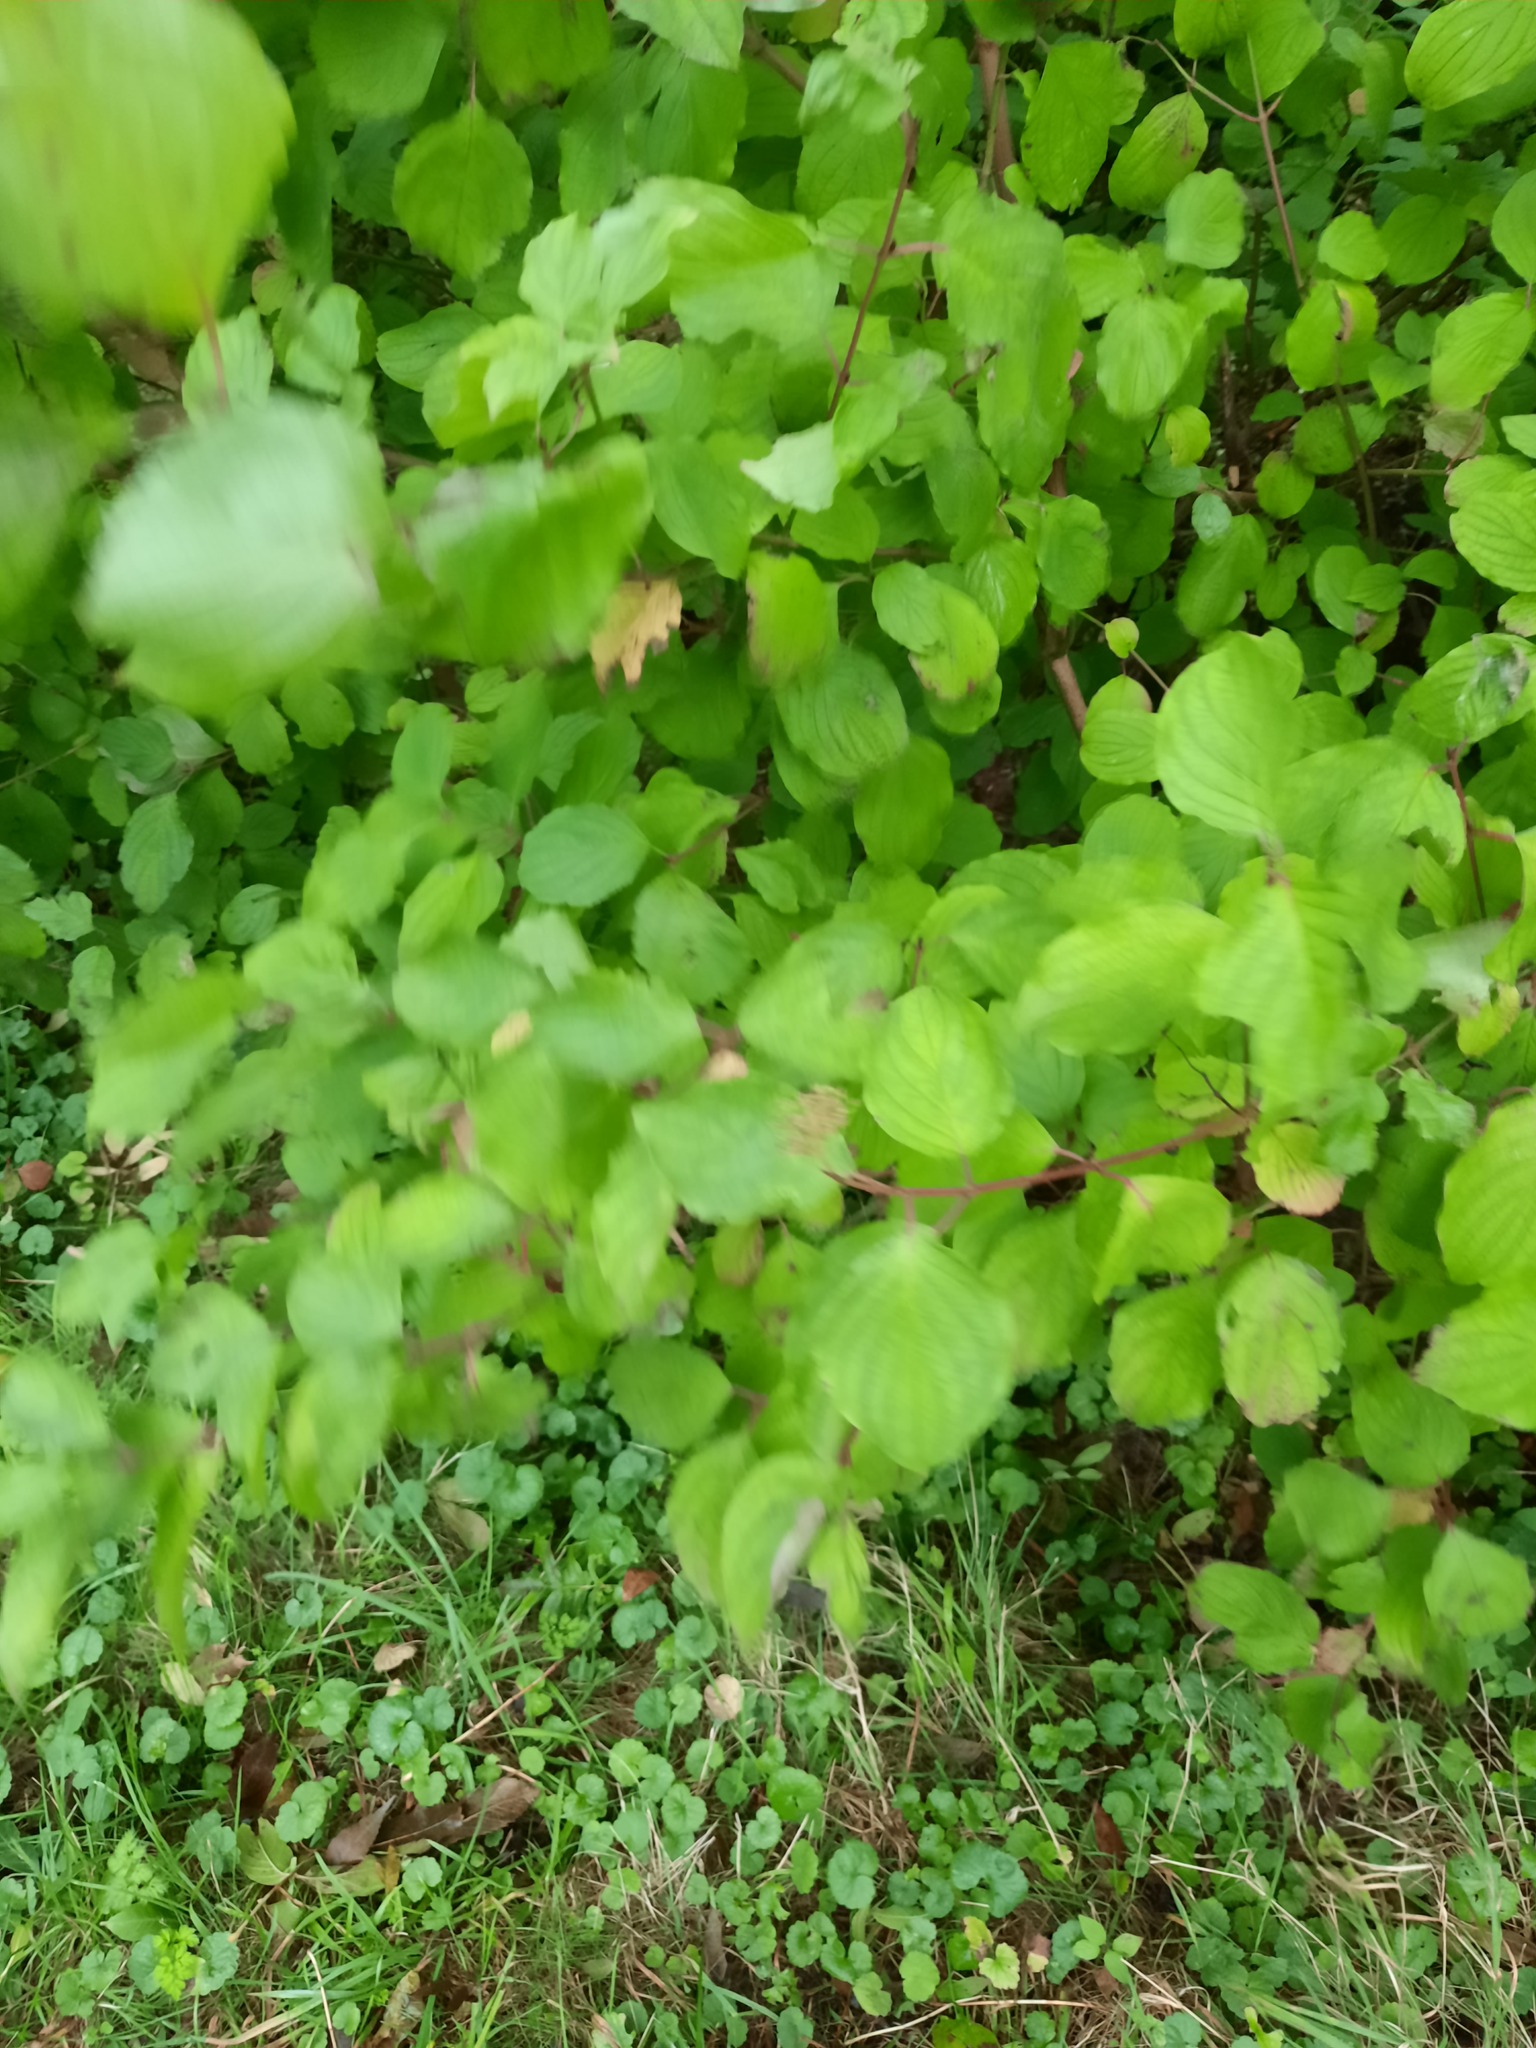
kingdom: Plantae
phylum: Tracheophyta
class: Magnoliopsida
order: Cornales
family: Cornaceae
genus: Cornus
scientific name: Cornus sanguinea
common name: Dogwood
